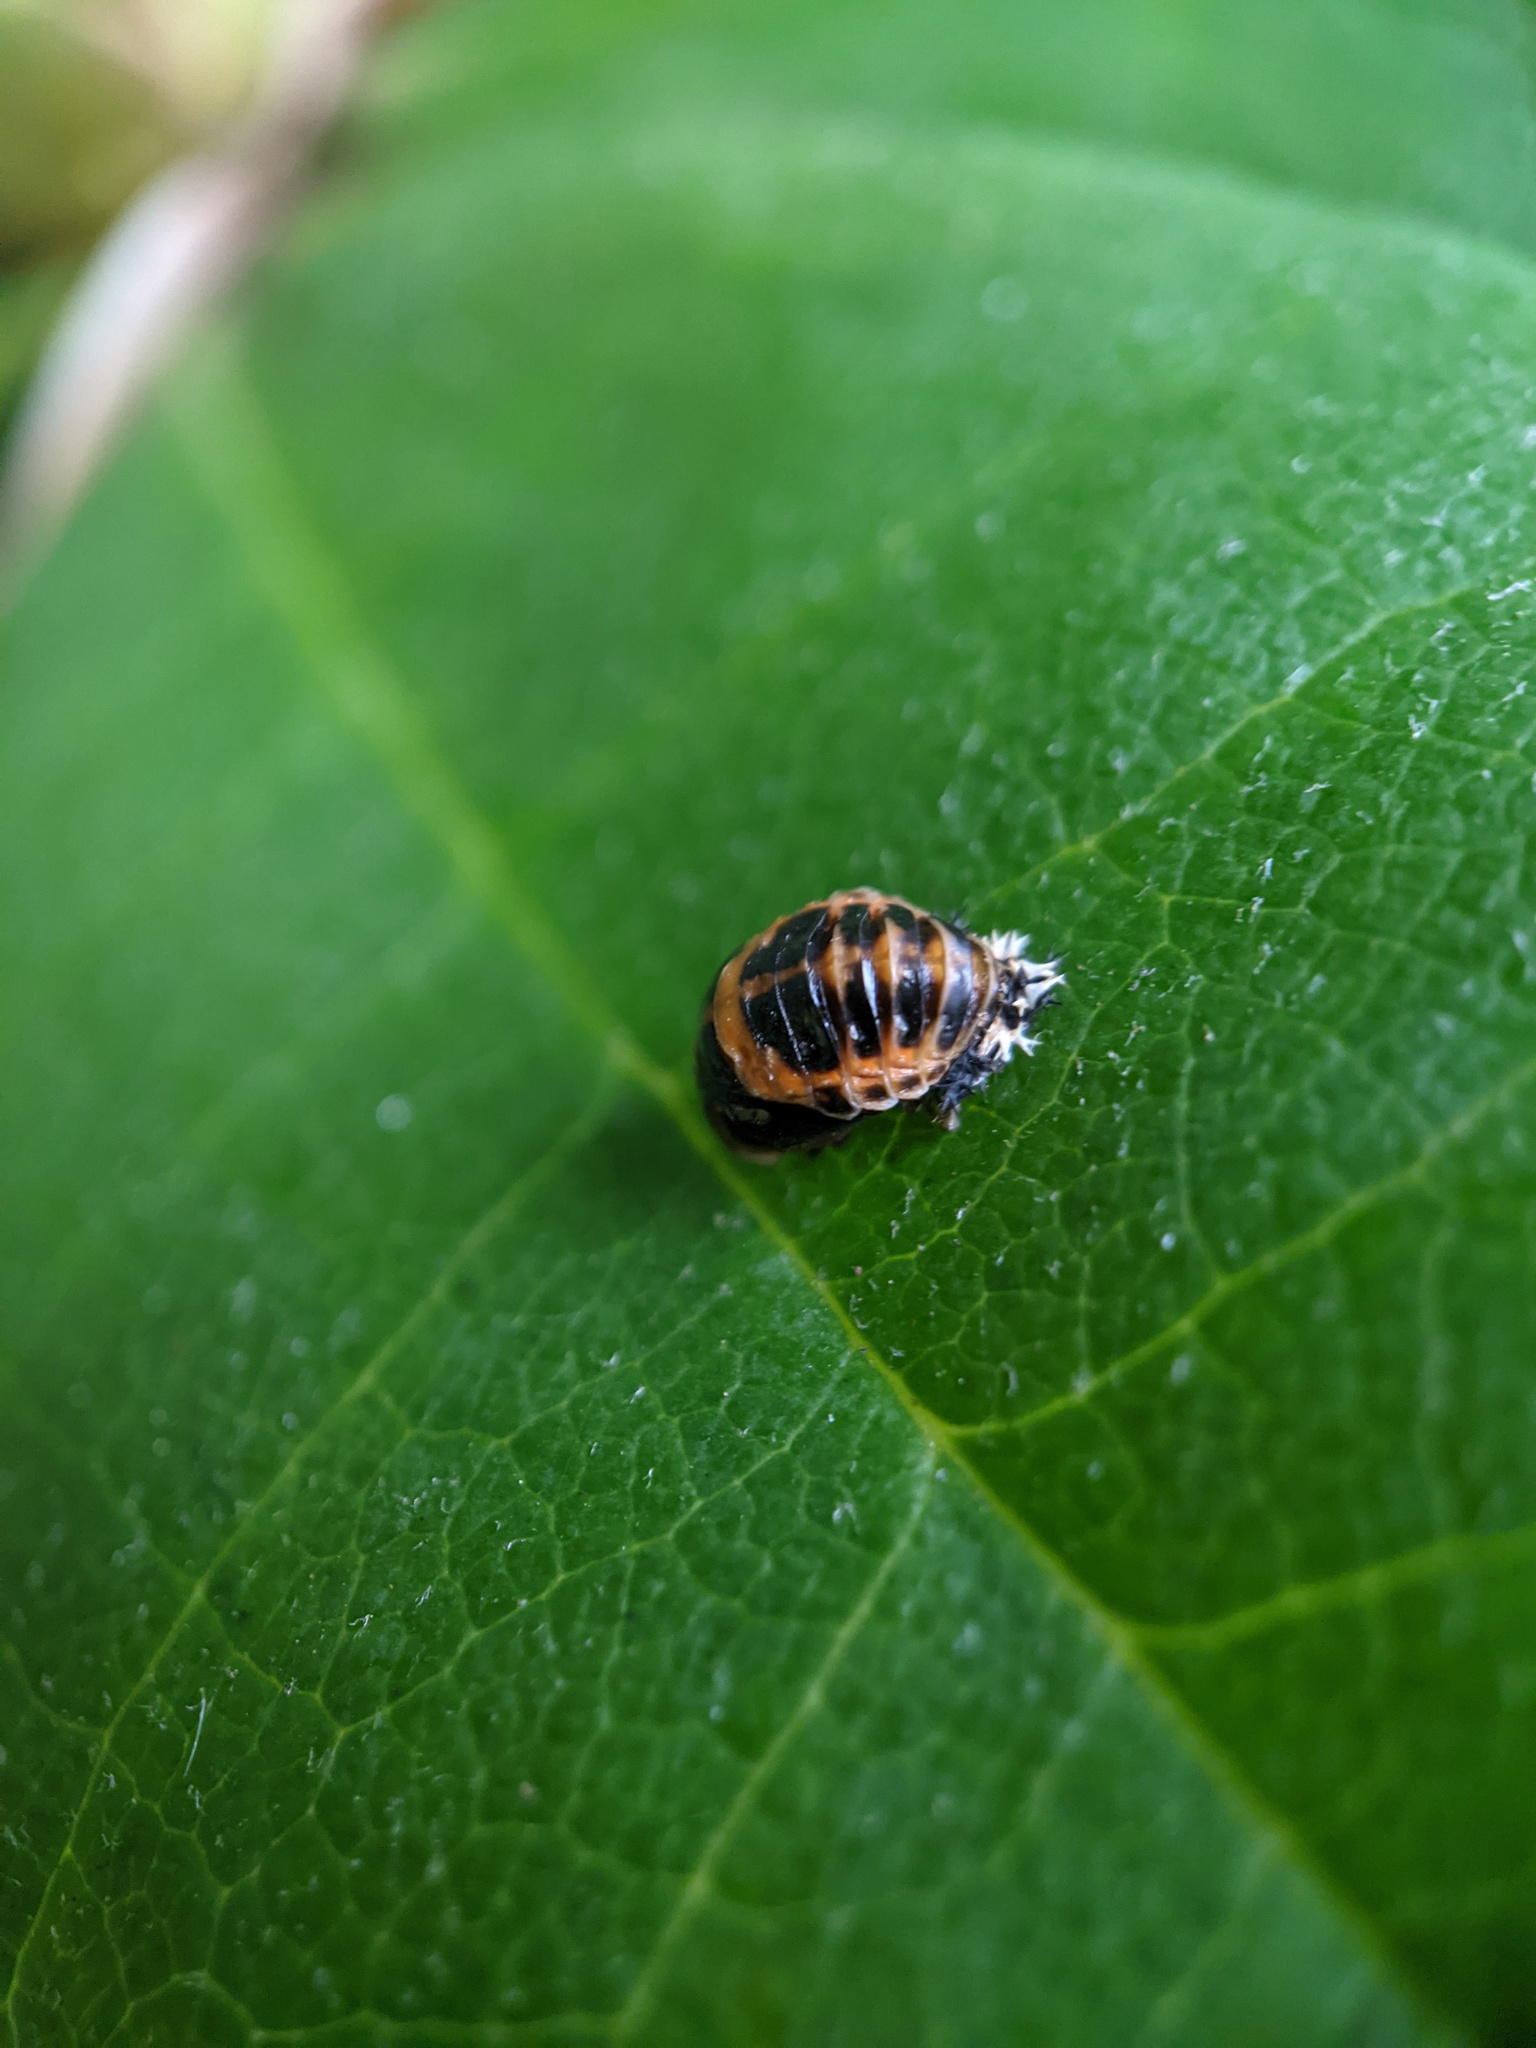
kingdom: Animalia
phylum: Arthropoda
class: Insecta
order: Coleoptera
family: Coccinellidae
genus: Harmonia
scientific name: Harmonia axyridis
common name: Harlequin ladybird
